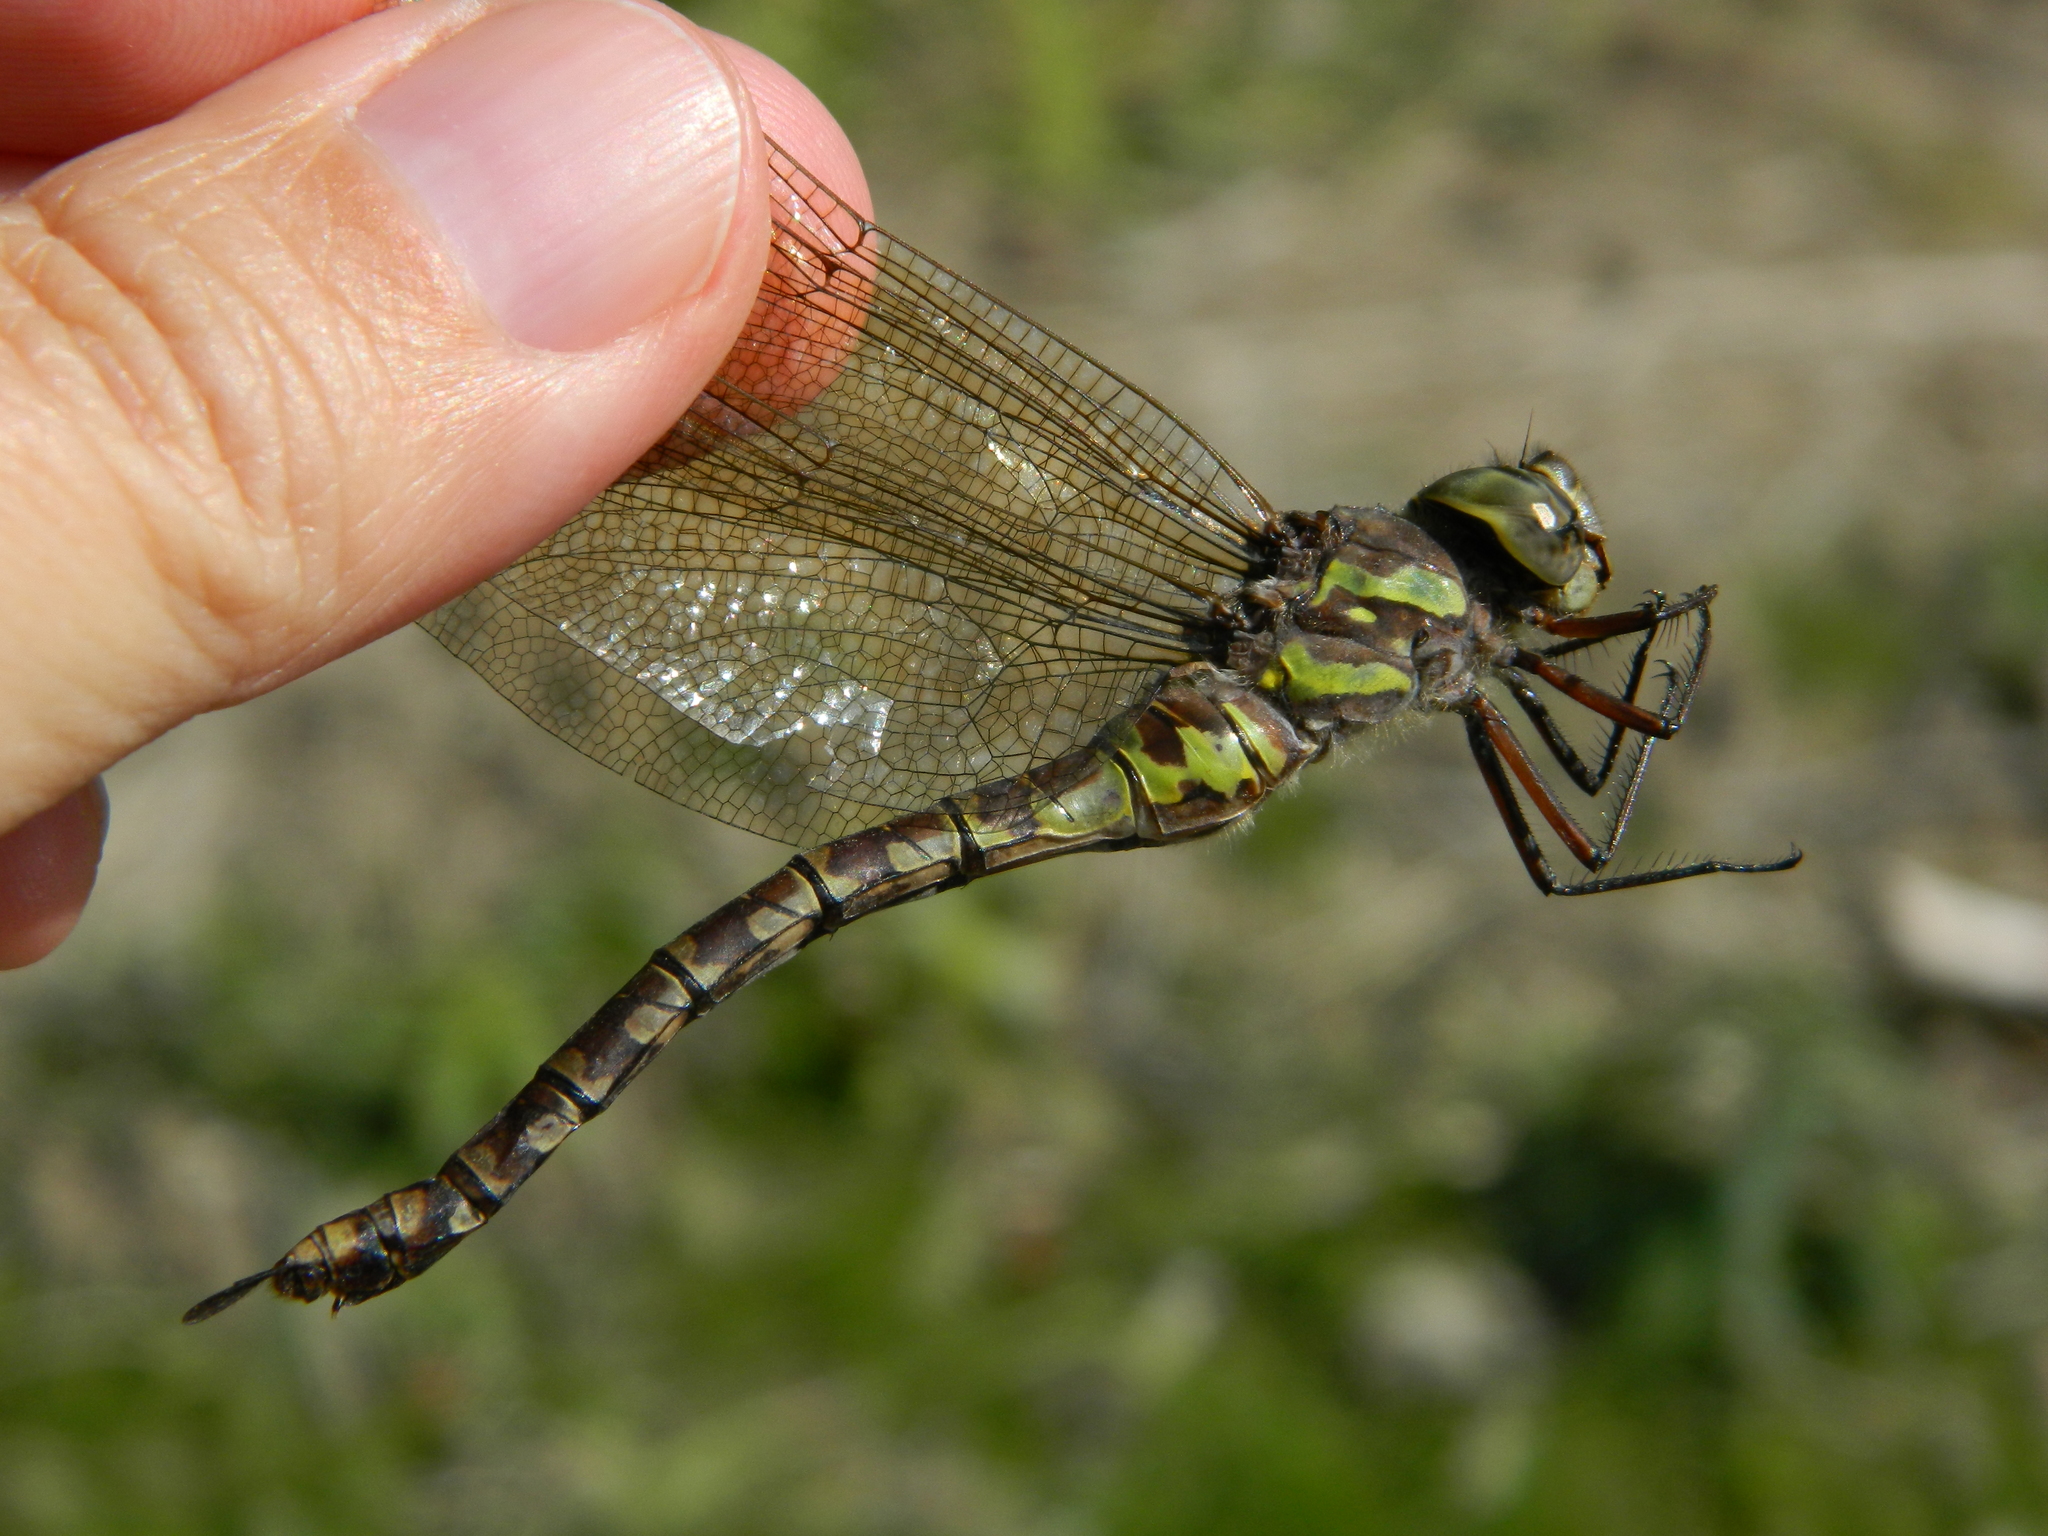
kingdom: Animalia
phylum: Arthropoda
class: Insecta
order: Odonata
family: Aeshnidae
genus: Aeshna
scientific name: Aeshna canadensis
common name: Canada darner
